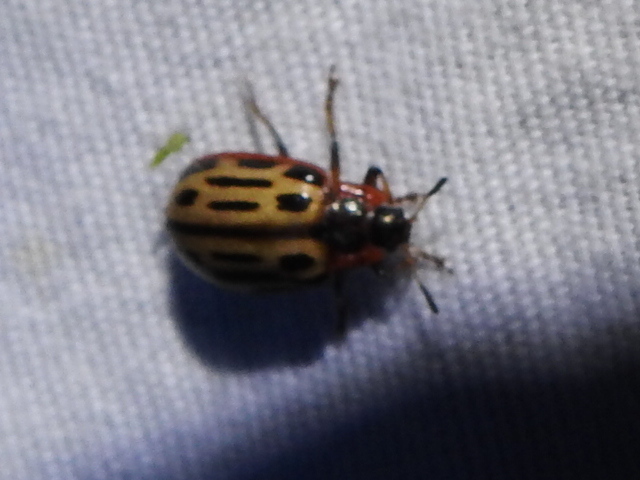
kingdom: Animalia
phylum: Arthropoda
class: Insecta
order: Coleoptera
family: Chrysomelidae
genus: Aethiopocassis
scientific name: Aethiopocassis scripta
